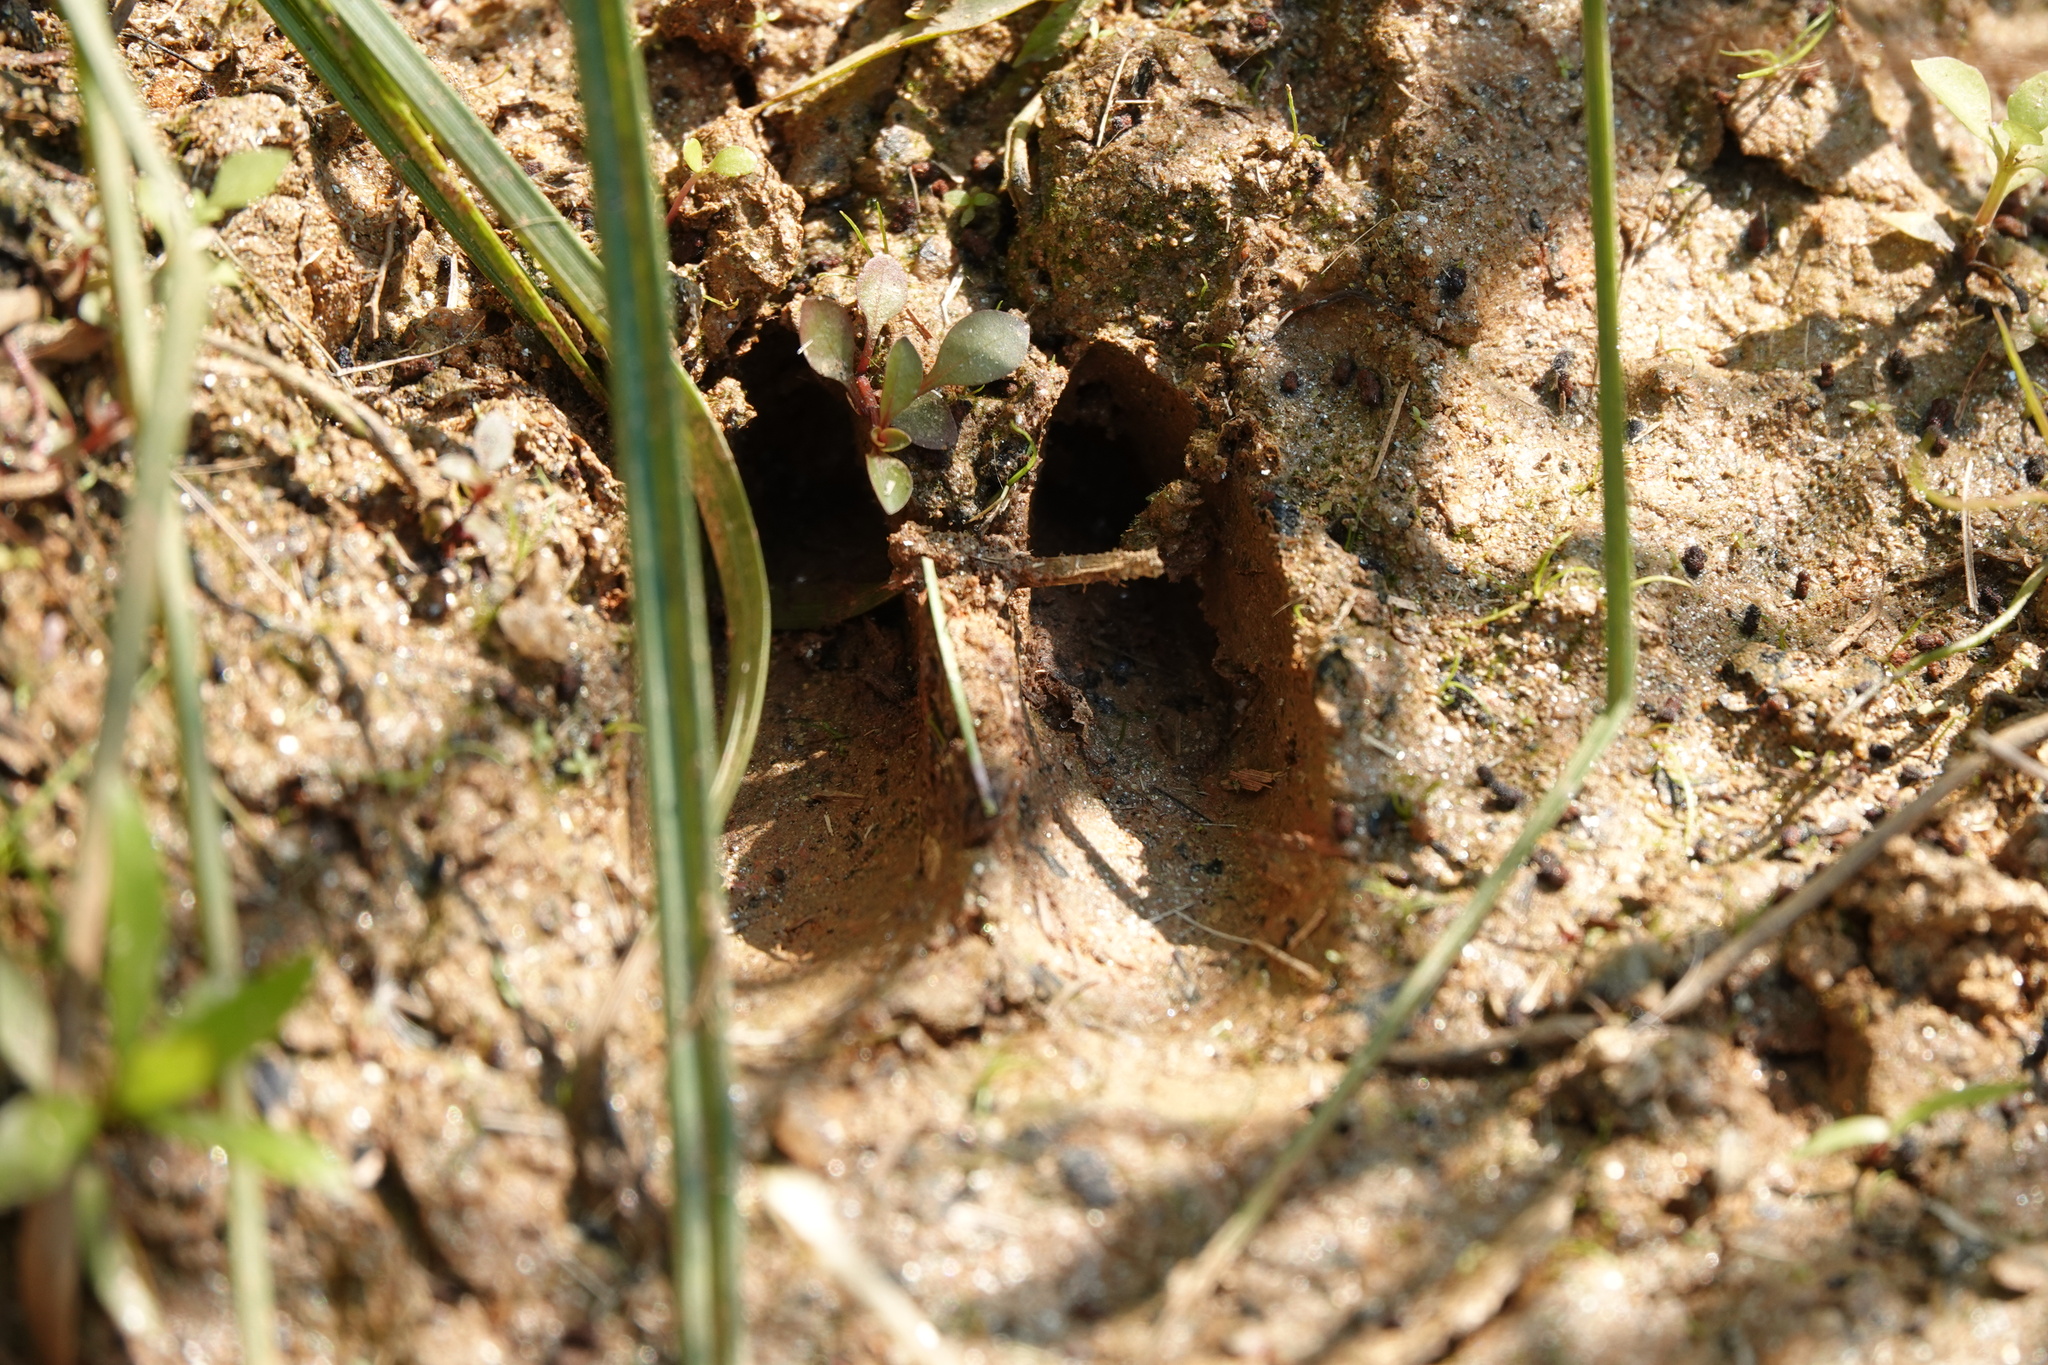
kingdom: Animalia
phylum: Chordata
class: Mammalia
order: Artiodactyla
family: Cervidae
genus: Odocoileus
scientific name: Odocoileus virginianus
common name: White-tailed deer
